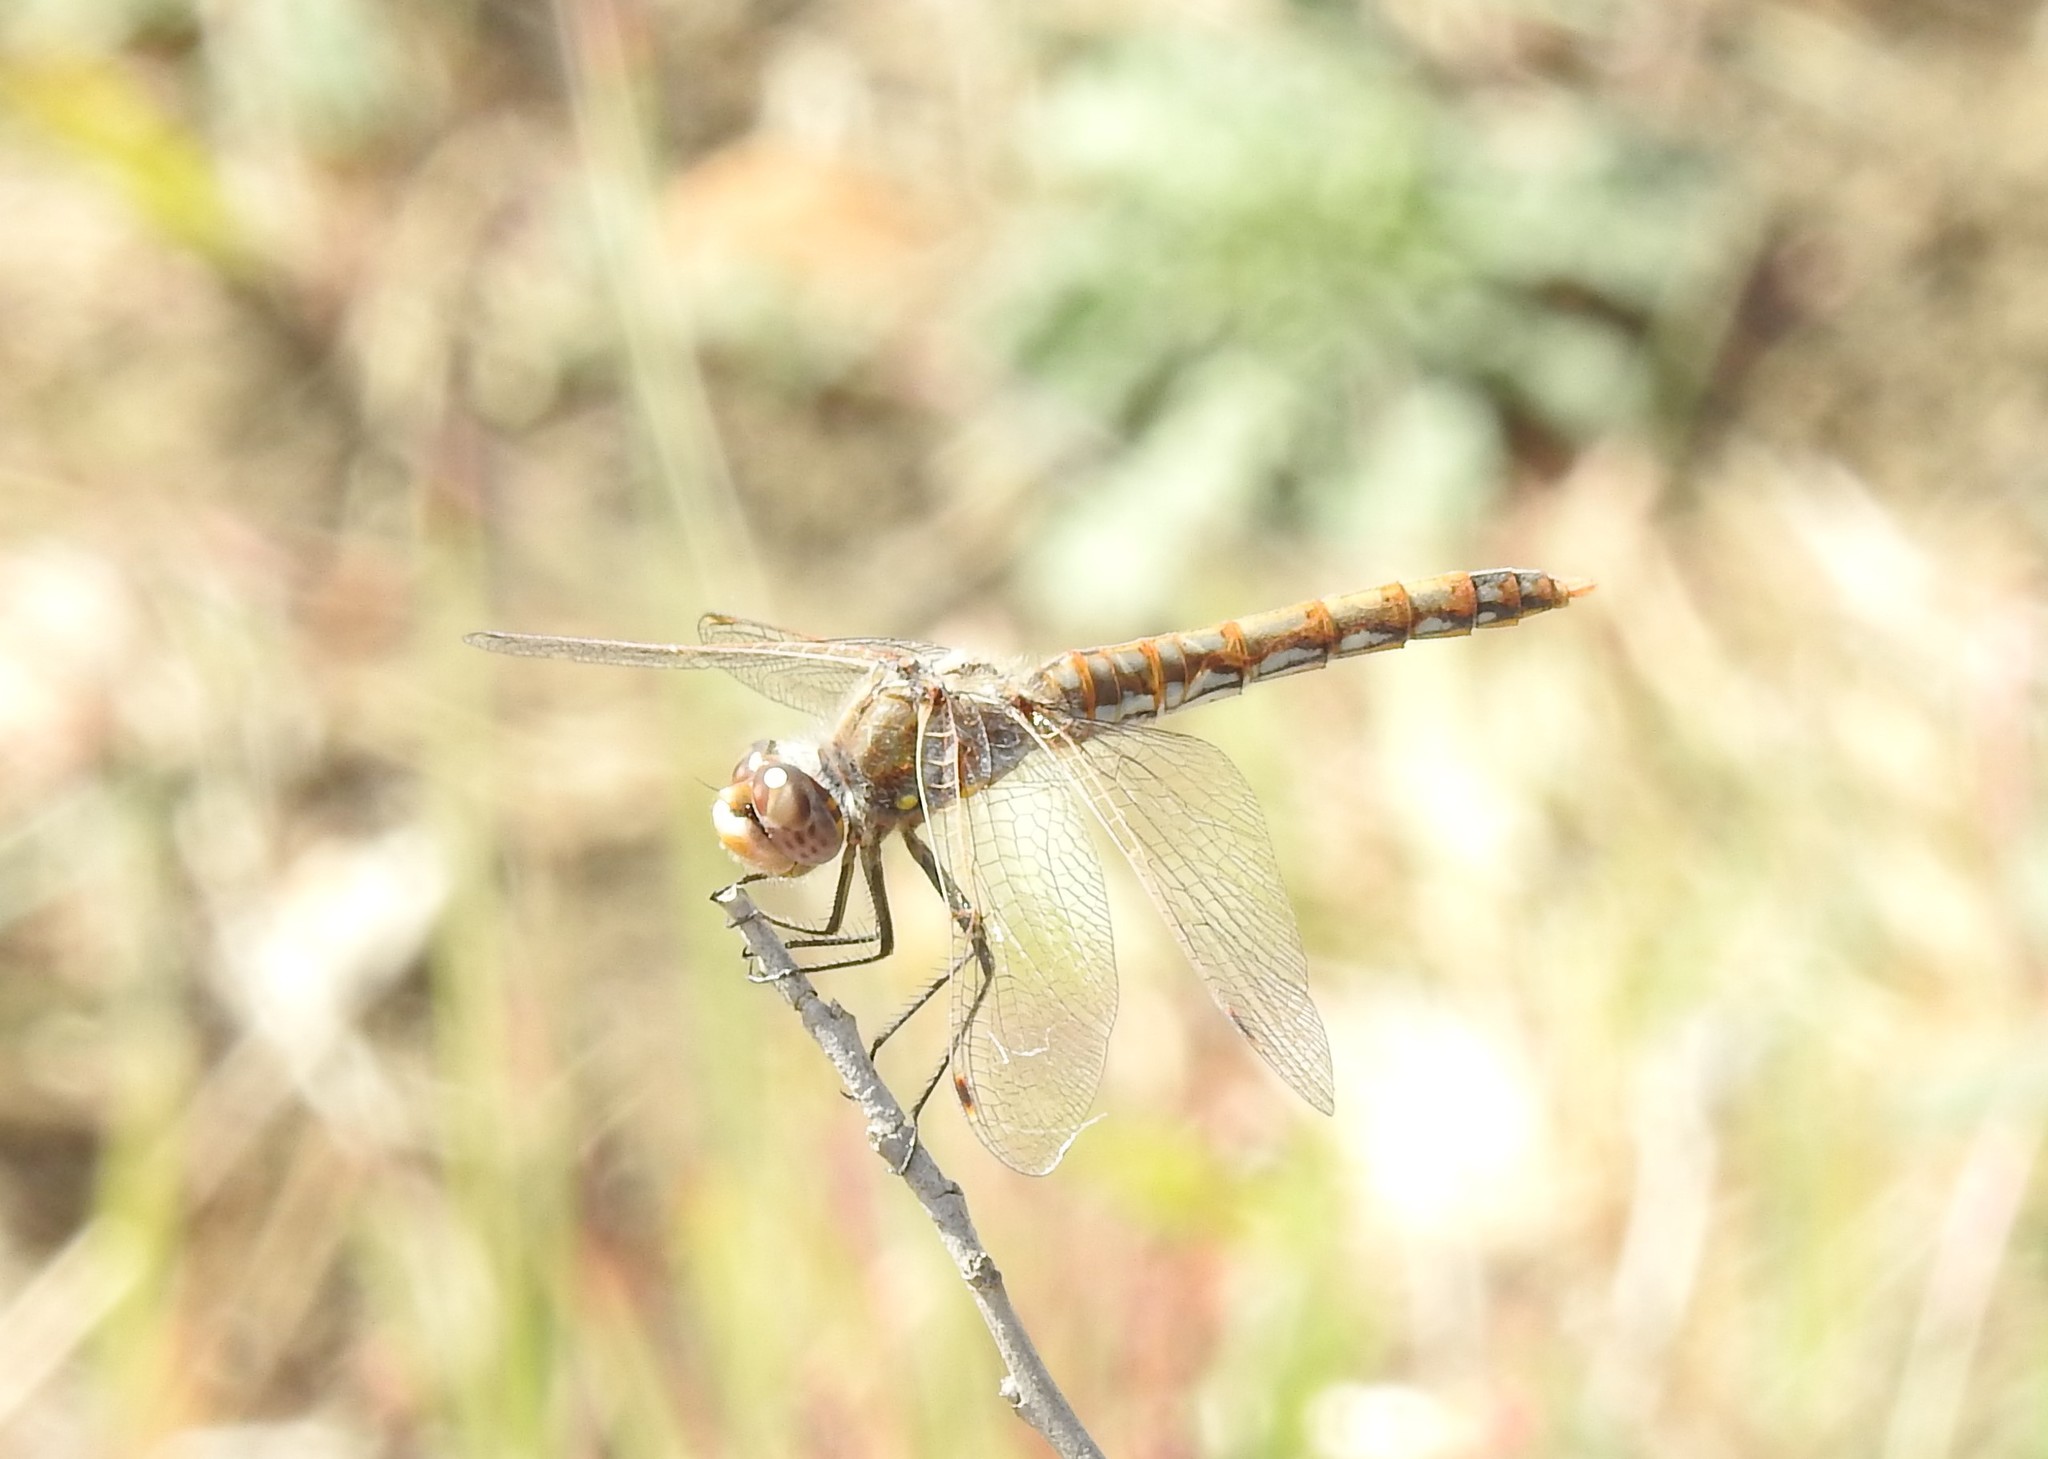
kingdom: Animalia
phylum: Arthropoda
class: Insecta
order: Odonata
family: Libellulidae
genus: Sympetrum
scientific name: Sympetrum corruptum
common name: Variegated meadowhawk
